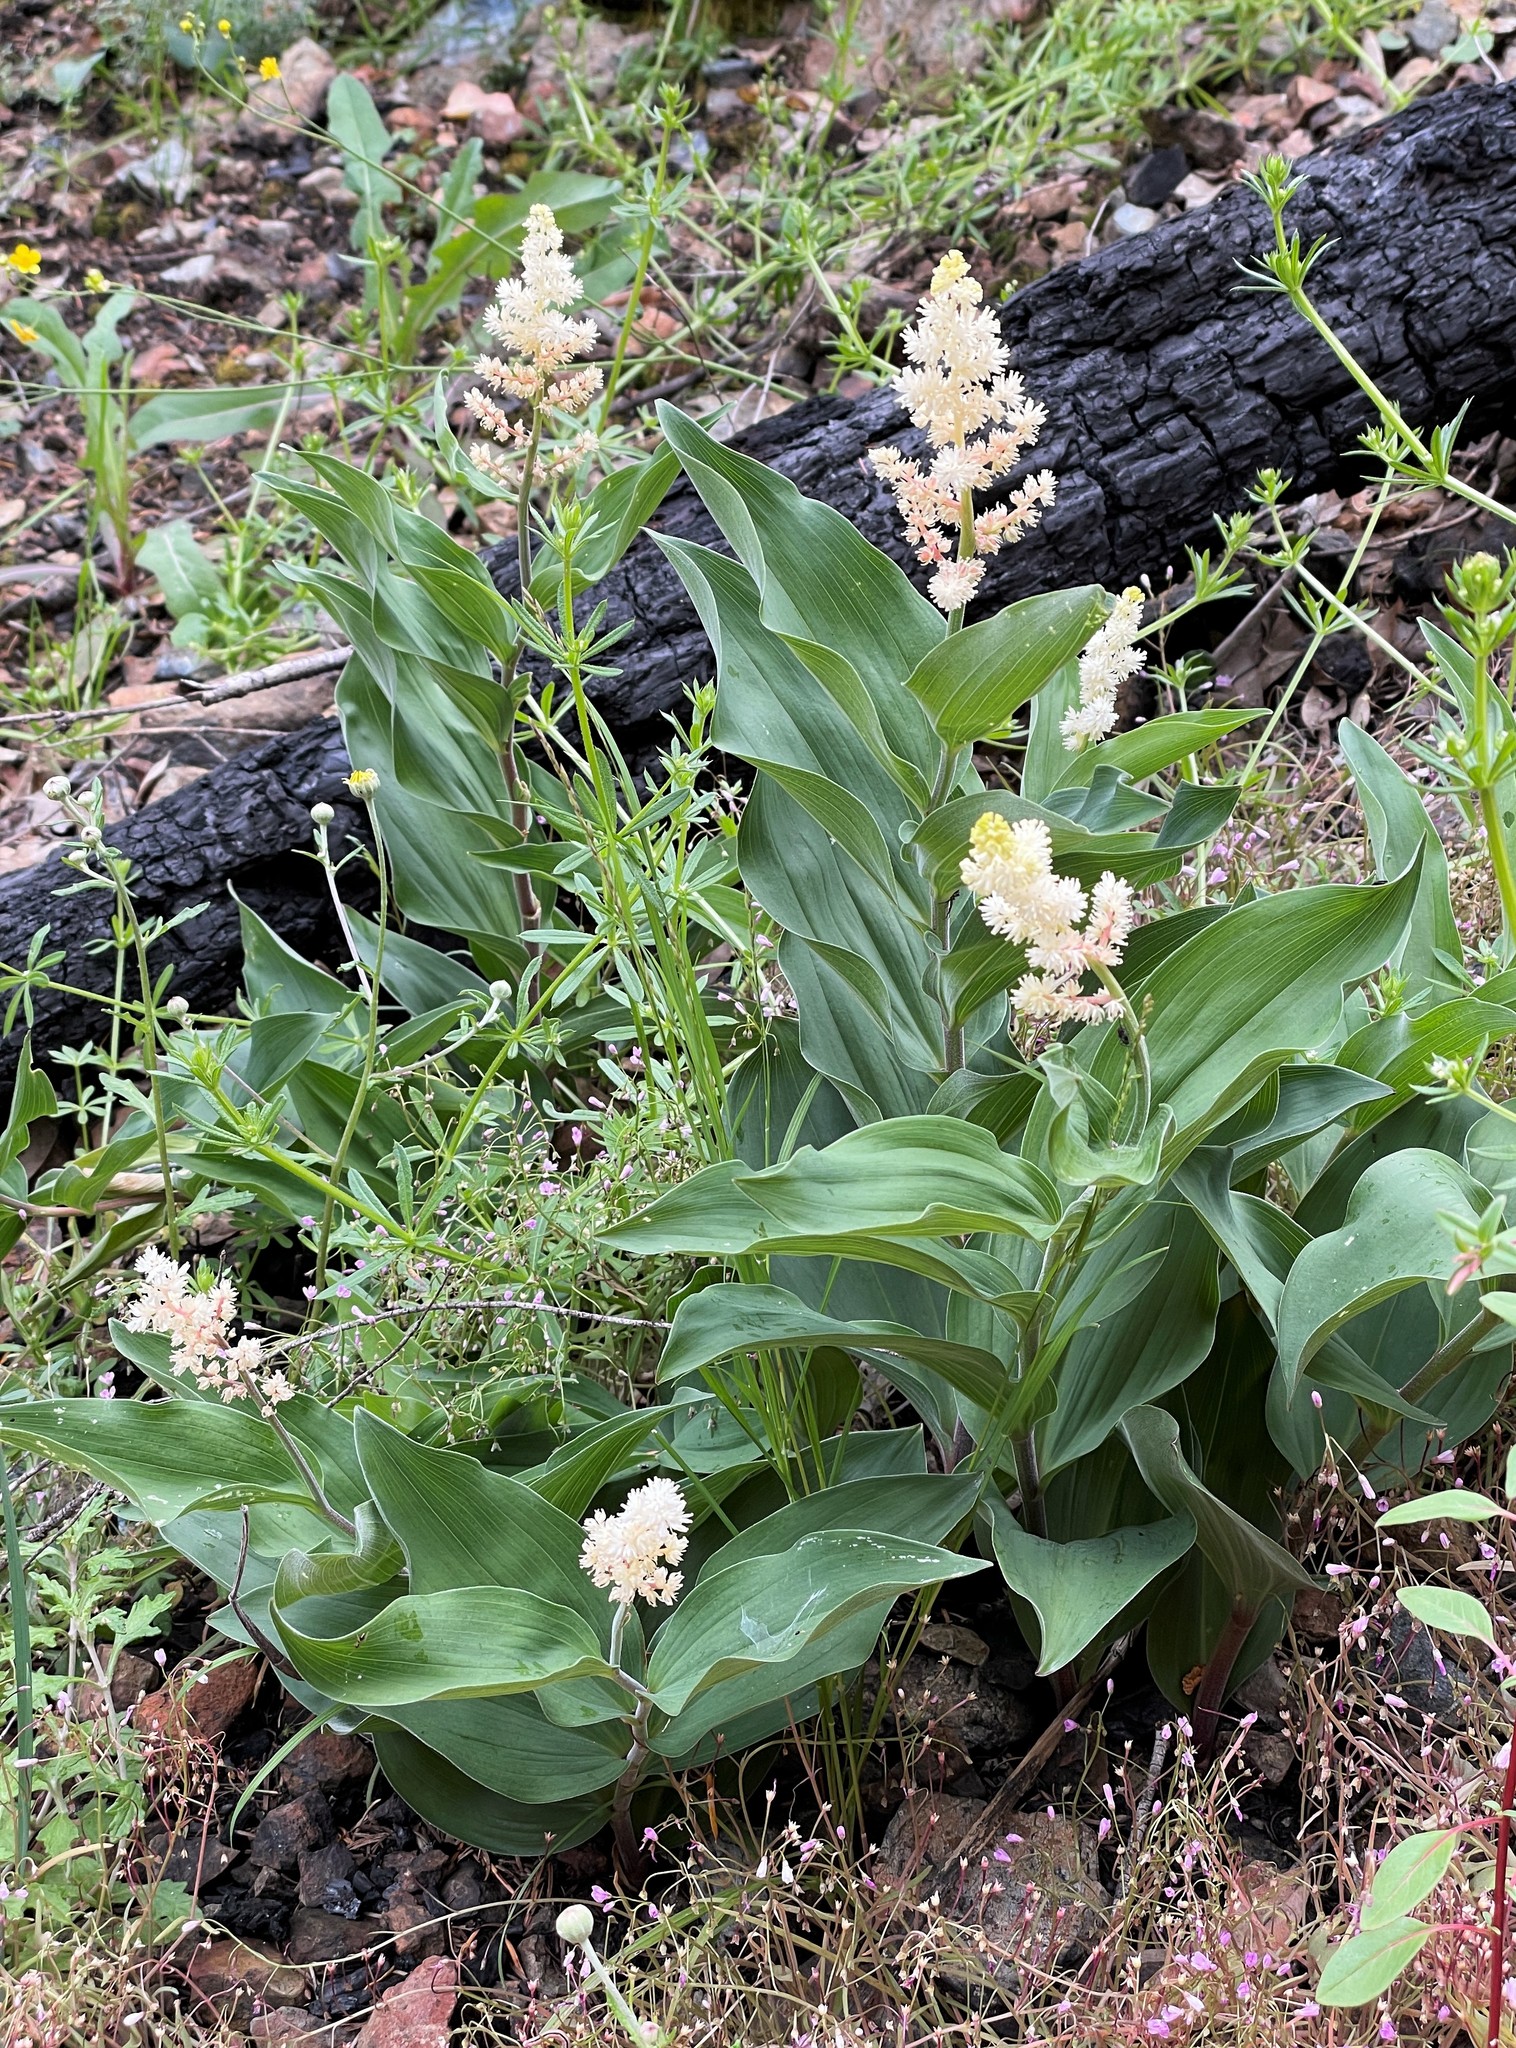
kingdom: Plantae
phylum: Tracheophyta
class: Liliopsida
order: Asparagales
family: Asparagaceae
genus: Maianthemum
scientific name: Maianthemum racemosum
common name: False spikenard
